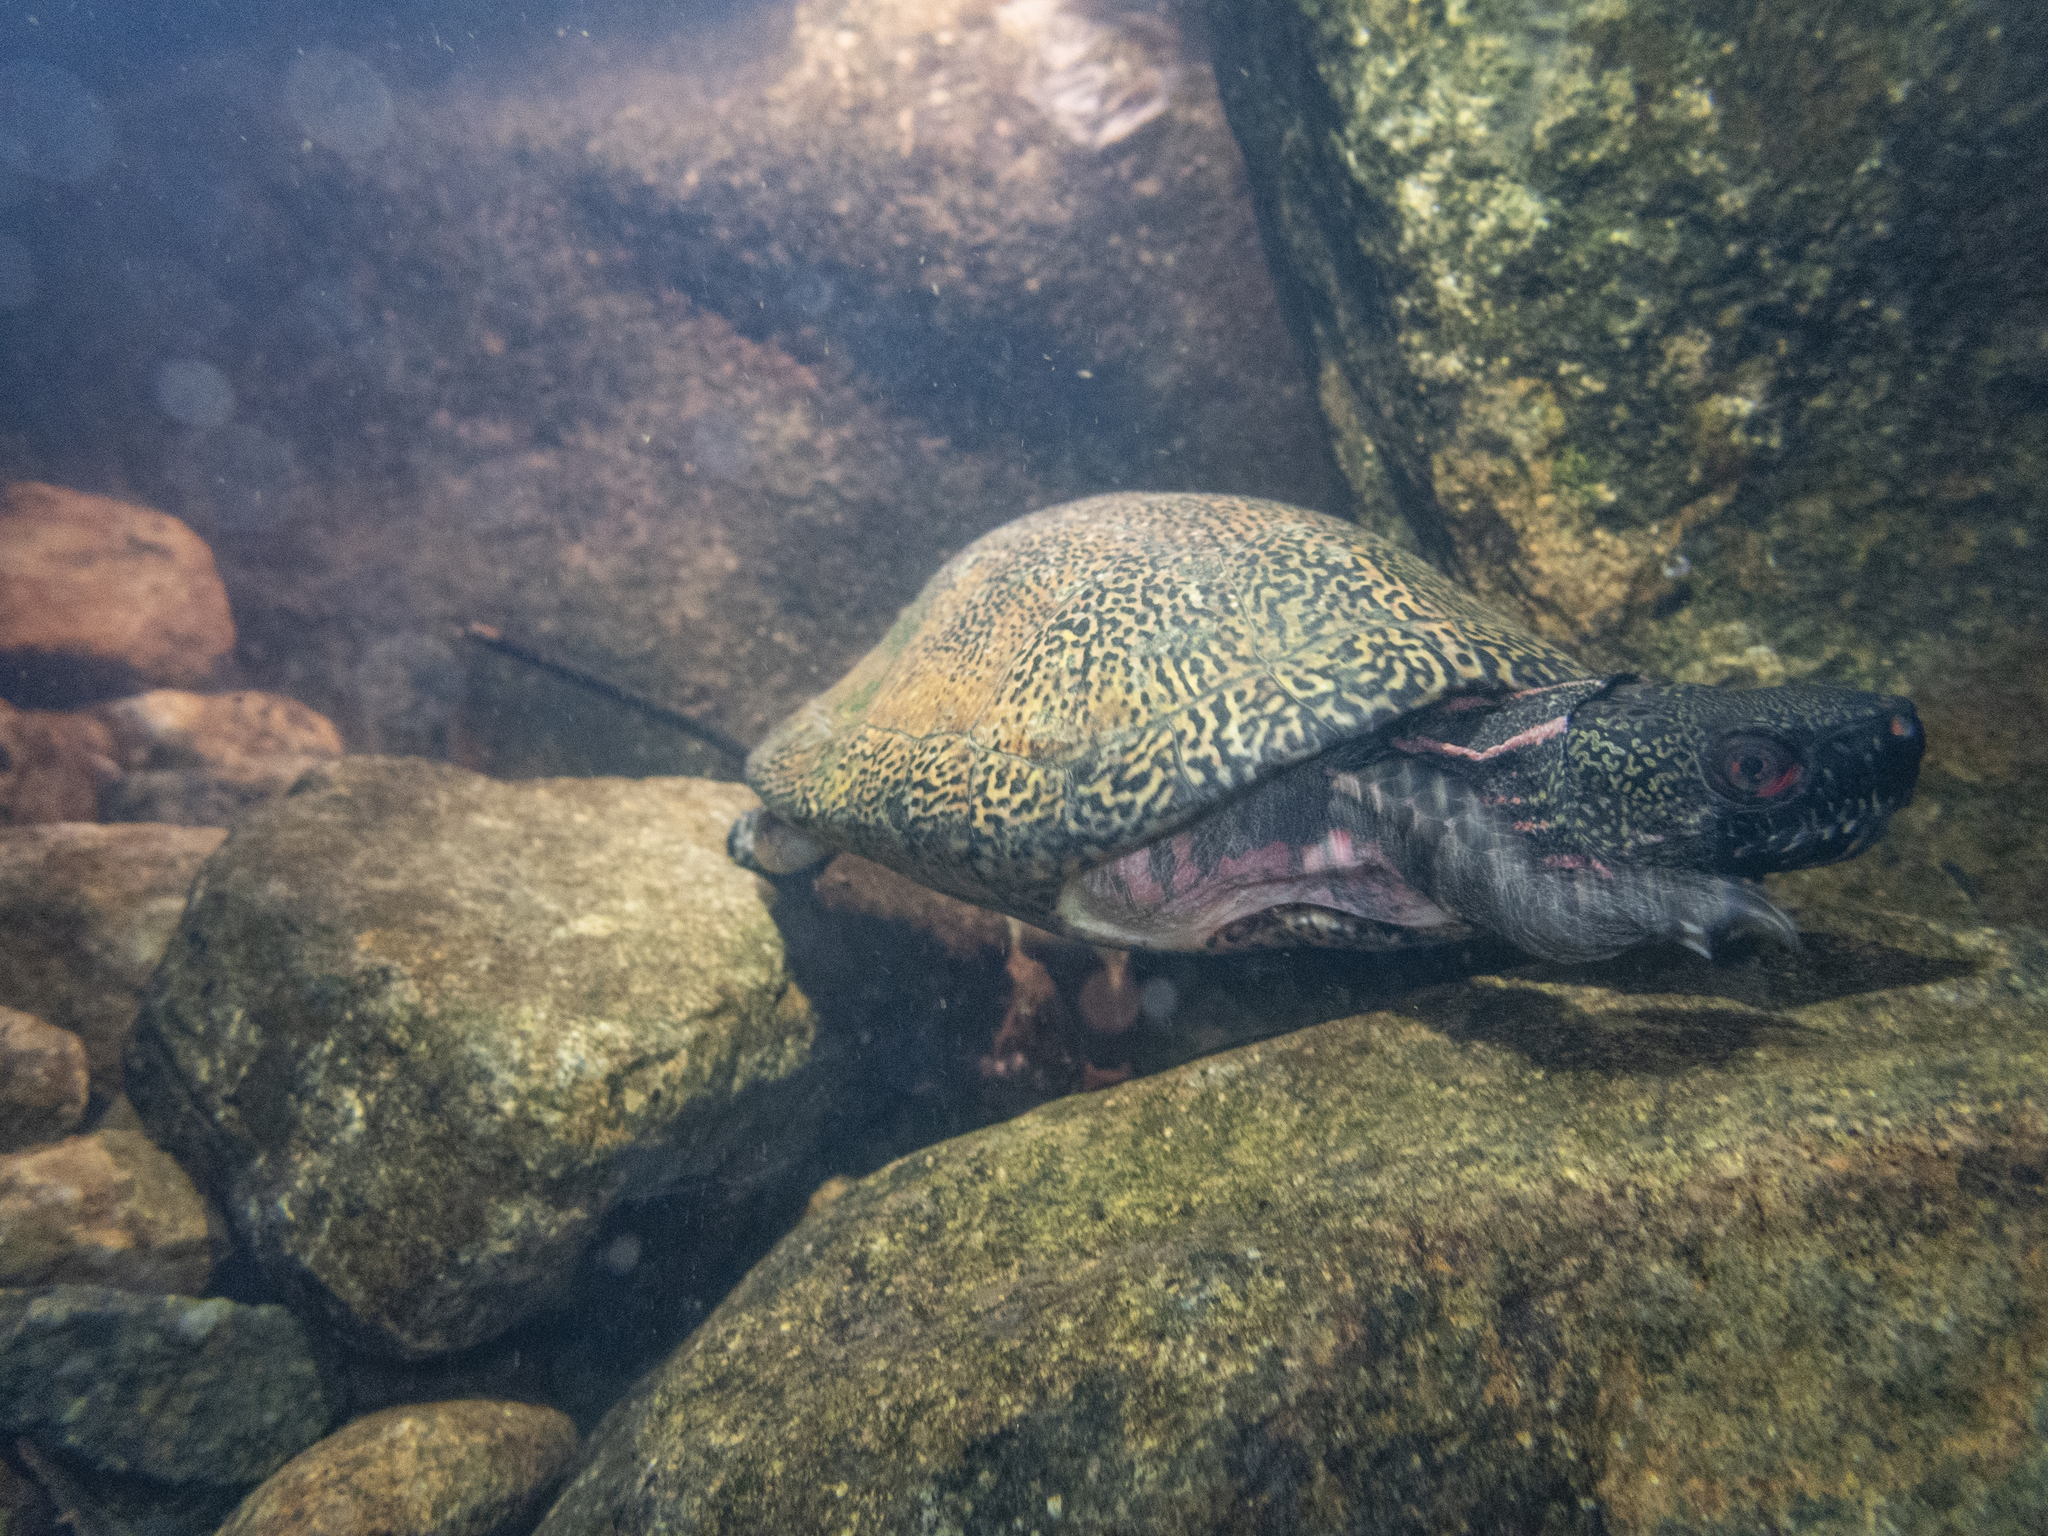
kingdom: Animalia
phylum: Chordata
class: Testudines
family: Geoemydidae
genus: Sacalia
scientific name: Sacalia bealei
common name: Beal’s four-eyed turtle
